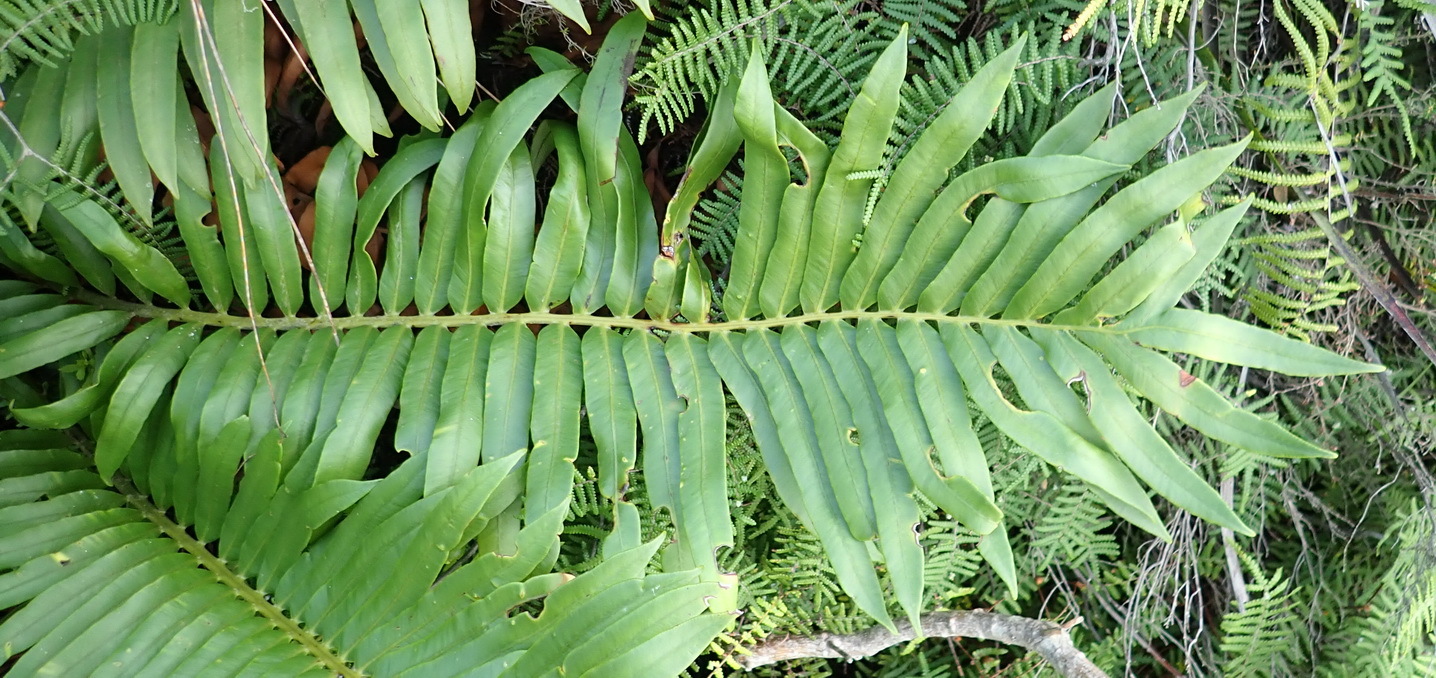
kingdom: Plantae
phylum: Tracheophyta
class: Polypodiopsida
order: Polypodiales
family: Blechnaceae
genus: Lomariocycas
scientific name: Lomariocycas tabularis
